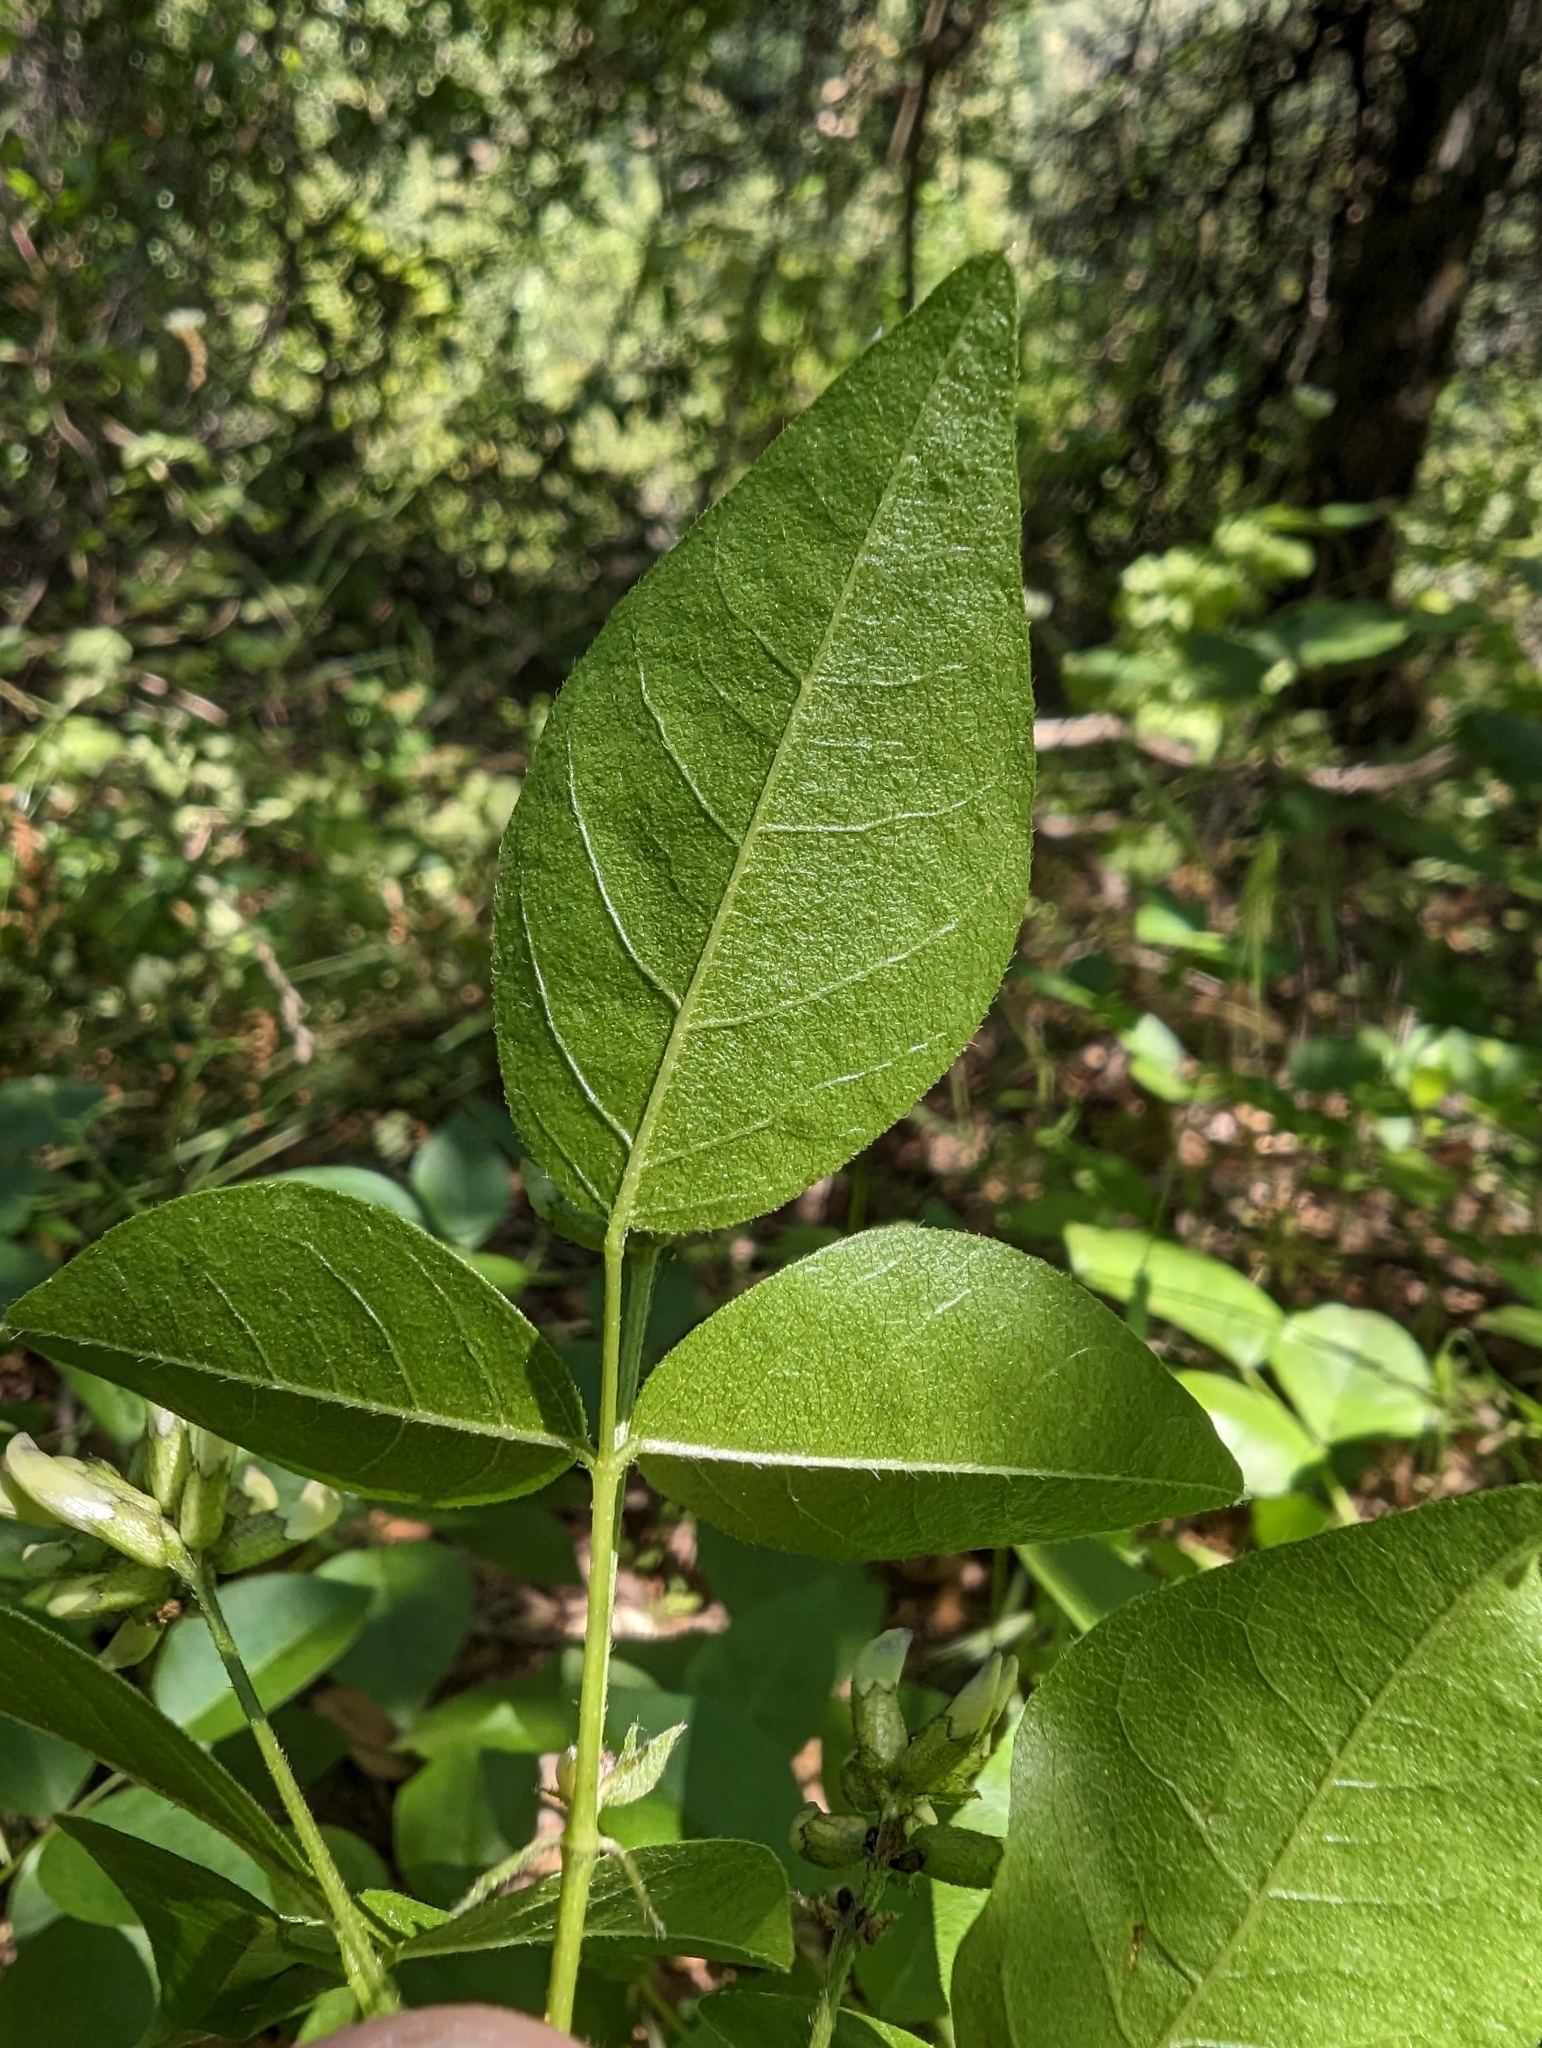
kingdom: Plantae
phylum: Tracheophyta
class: Magnoliopsida
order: Fabales
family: Fabaceae
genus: Rupertia
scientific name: Rupertia physodes
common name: California-tea
